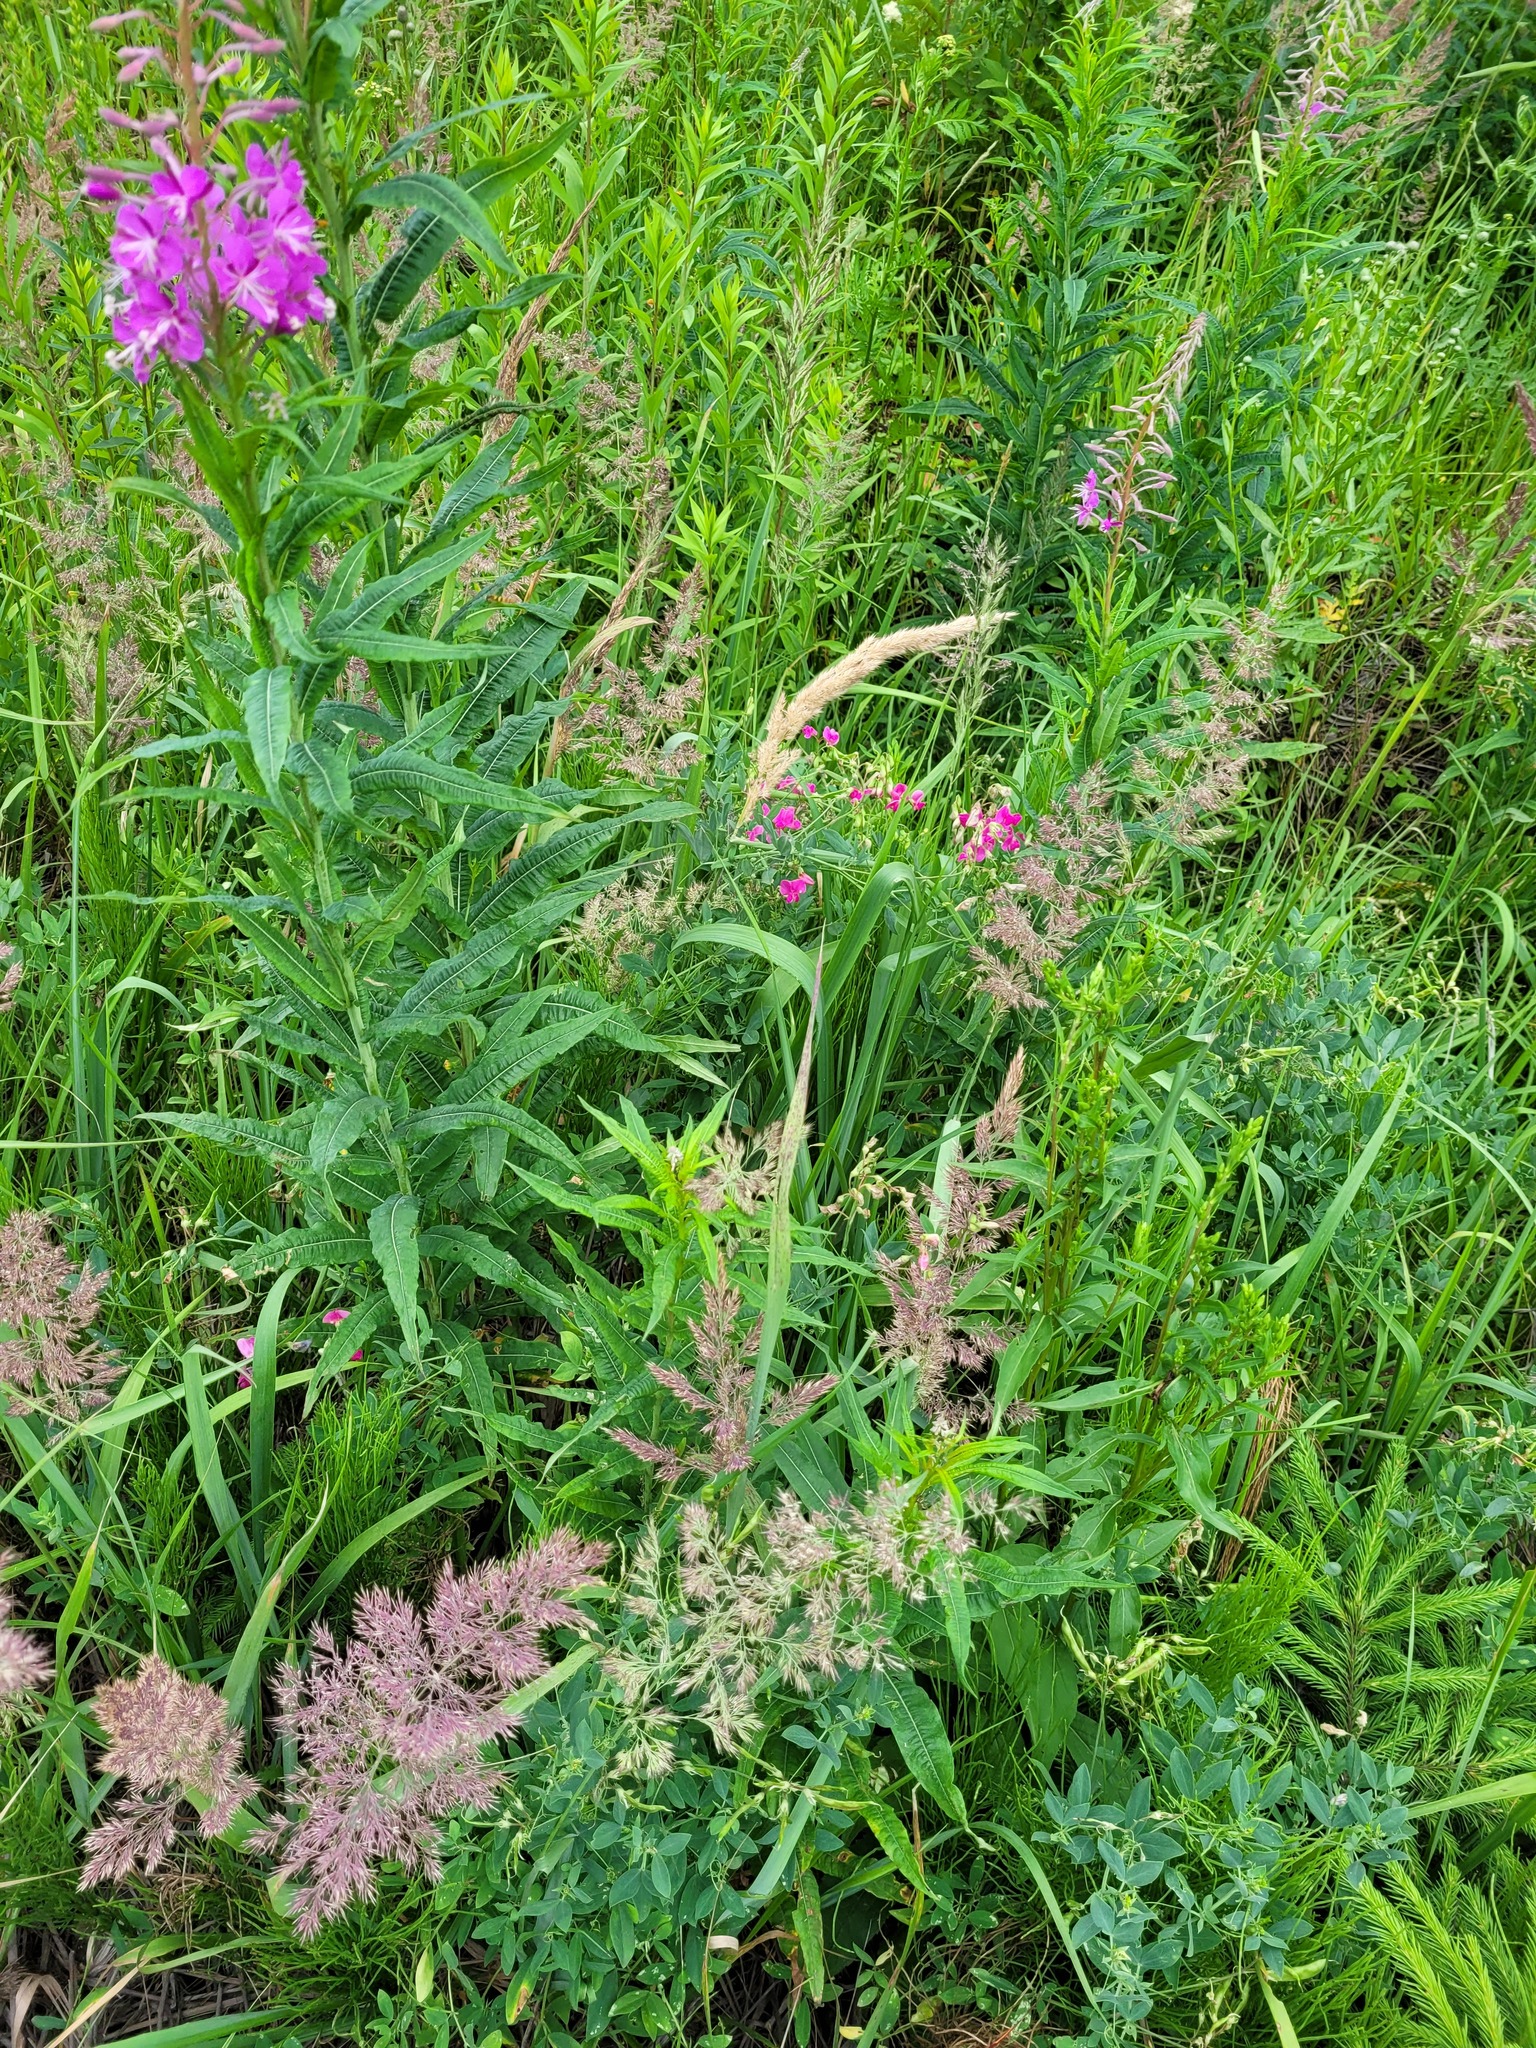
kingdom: Plantae
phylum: Tracheophyta
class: Magnoliopsida
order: Fabales
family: Fabaceae
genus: Lathyrus
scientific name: Lathyrus tuberosus
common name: Tuberous pea
